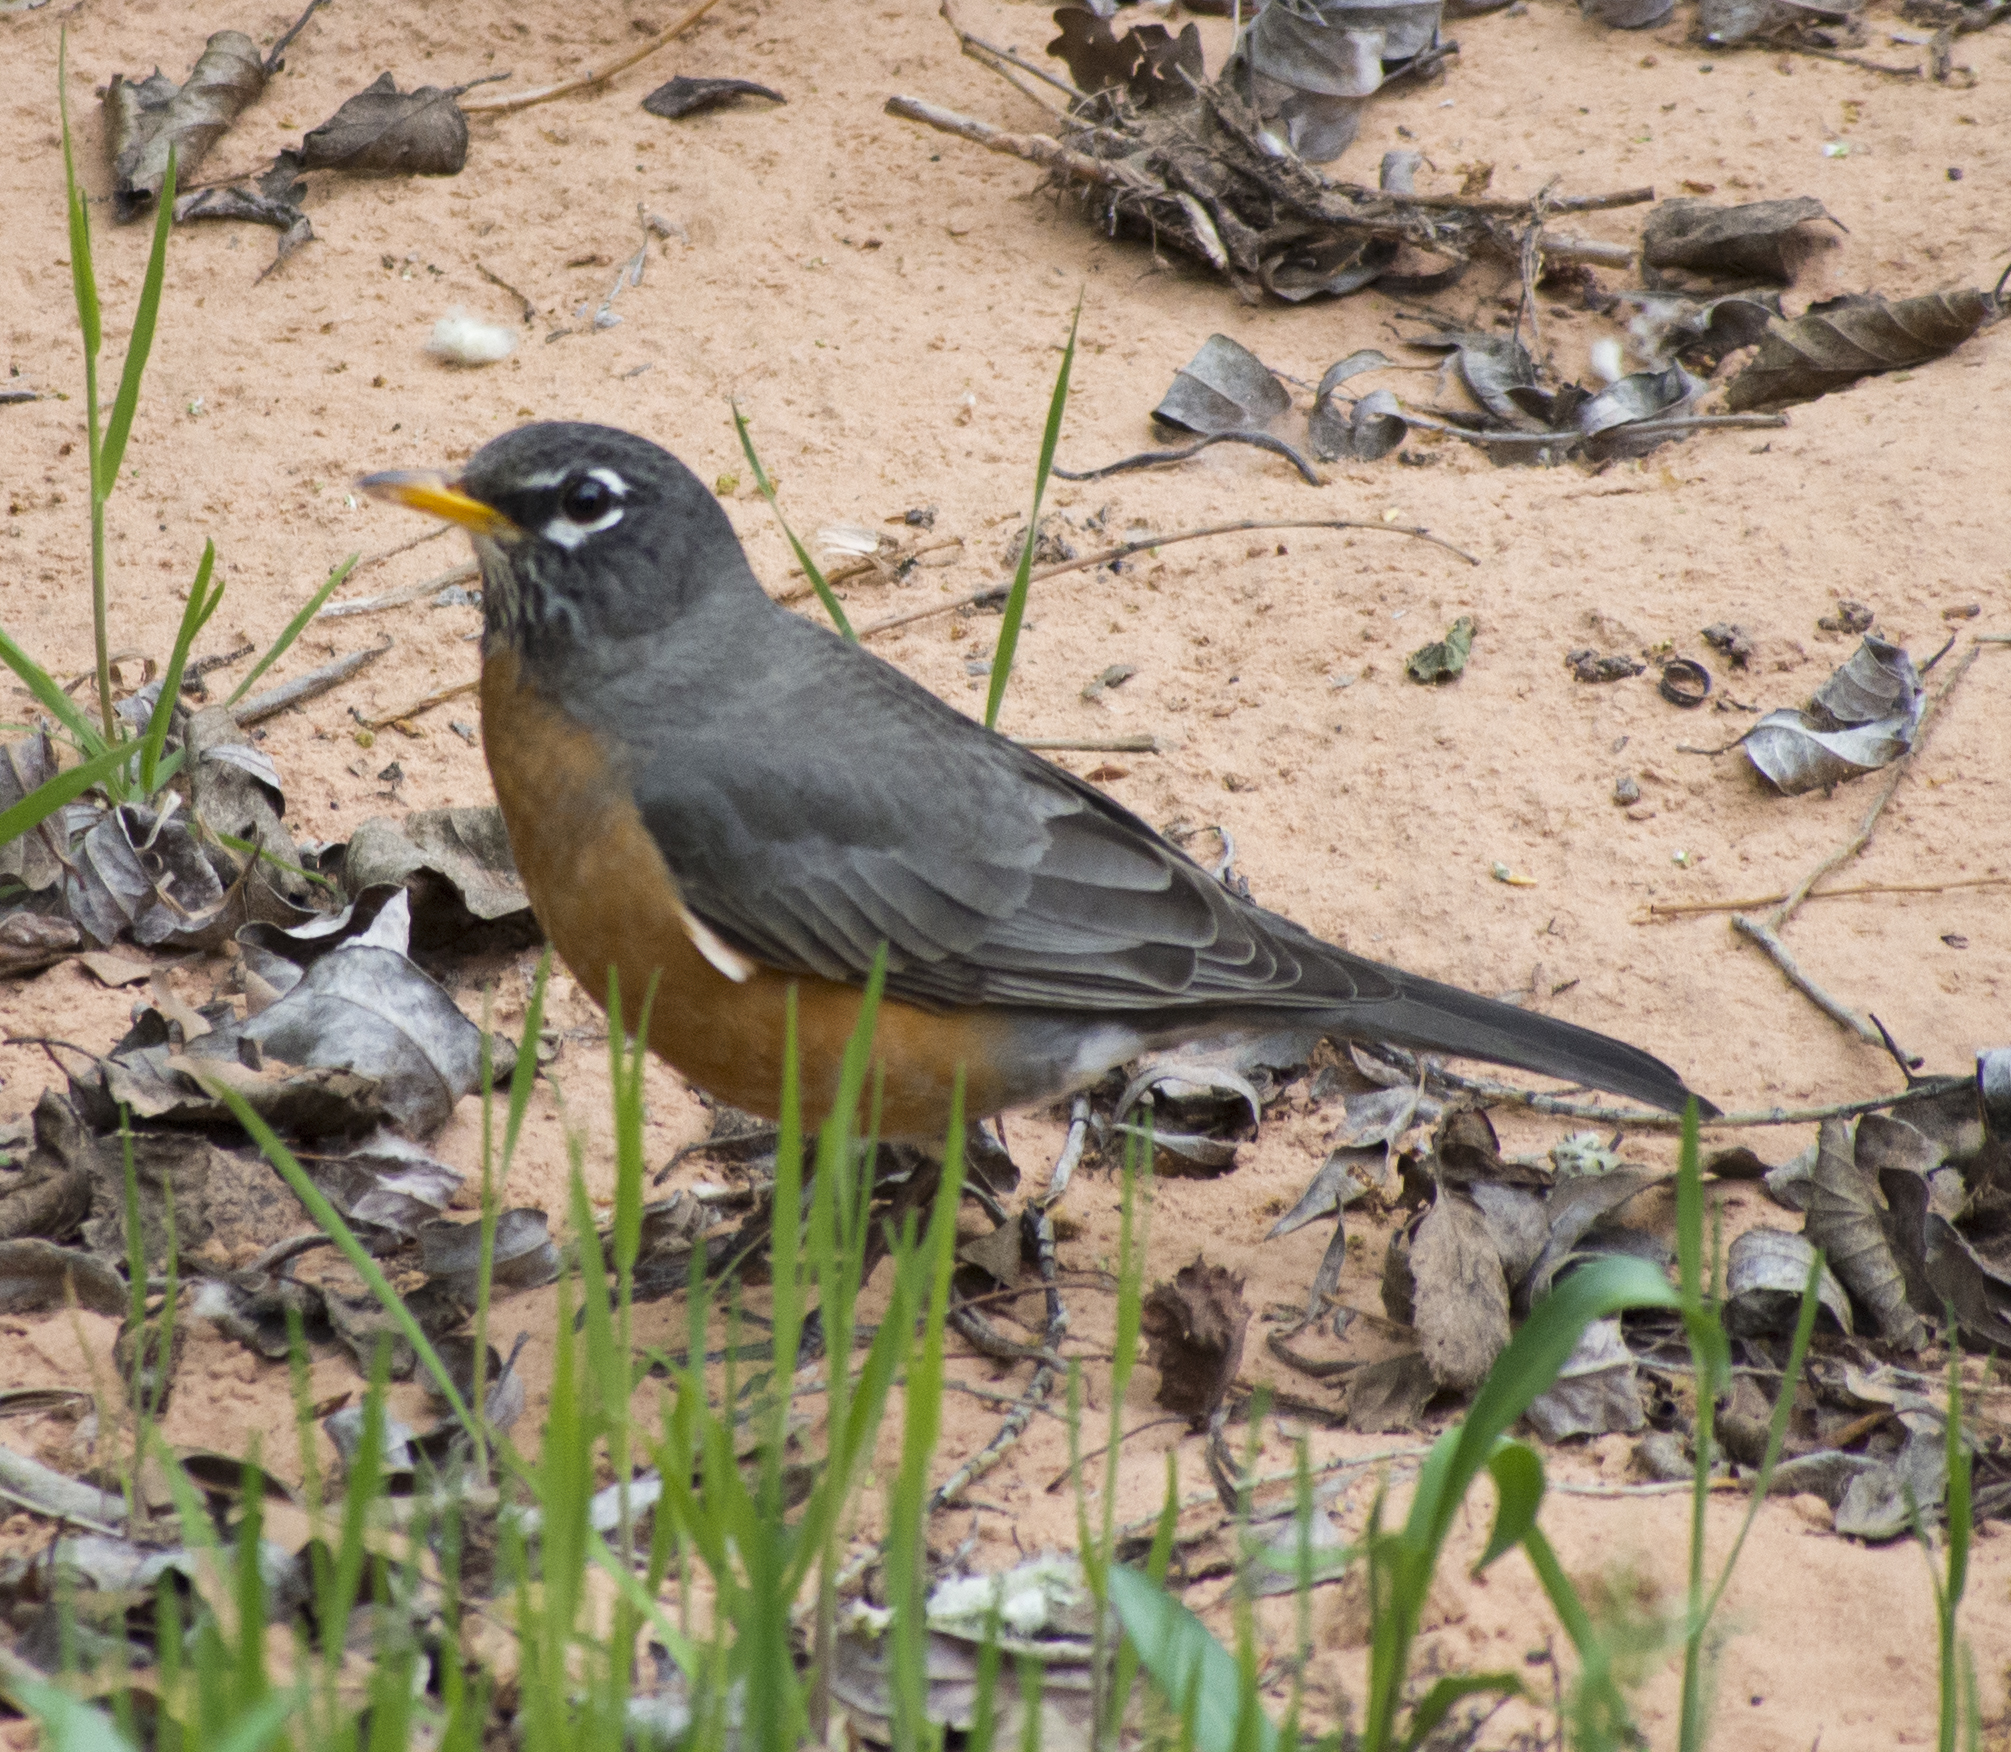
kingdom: Animalia
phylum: Chordata
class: Aves
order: Passeriformes
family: Turdidae
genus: Turdus
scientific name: Turdus migratorius
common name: American robin
